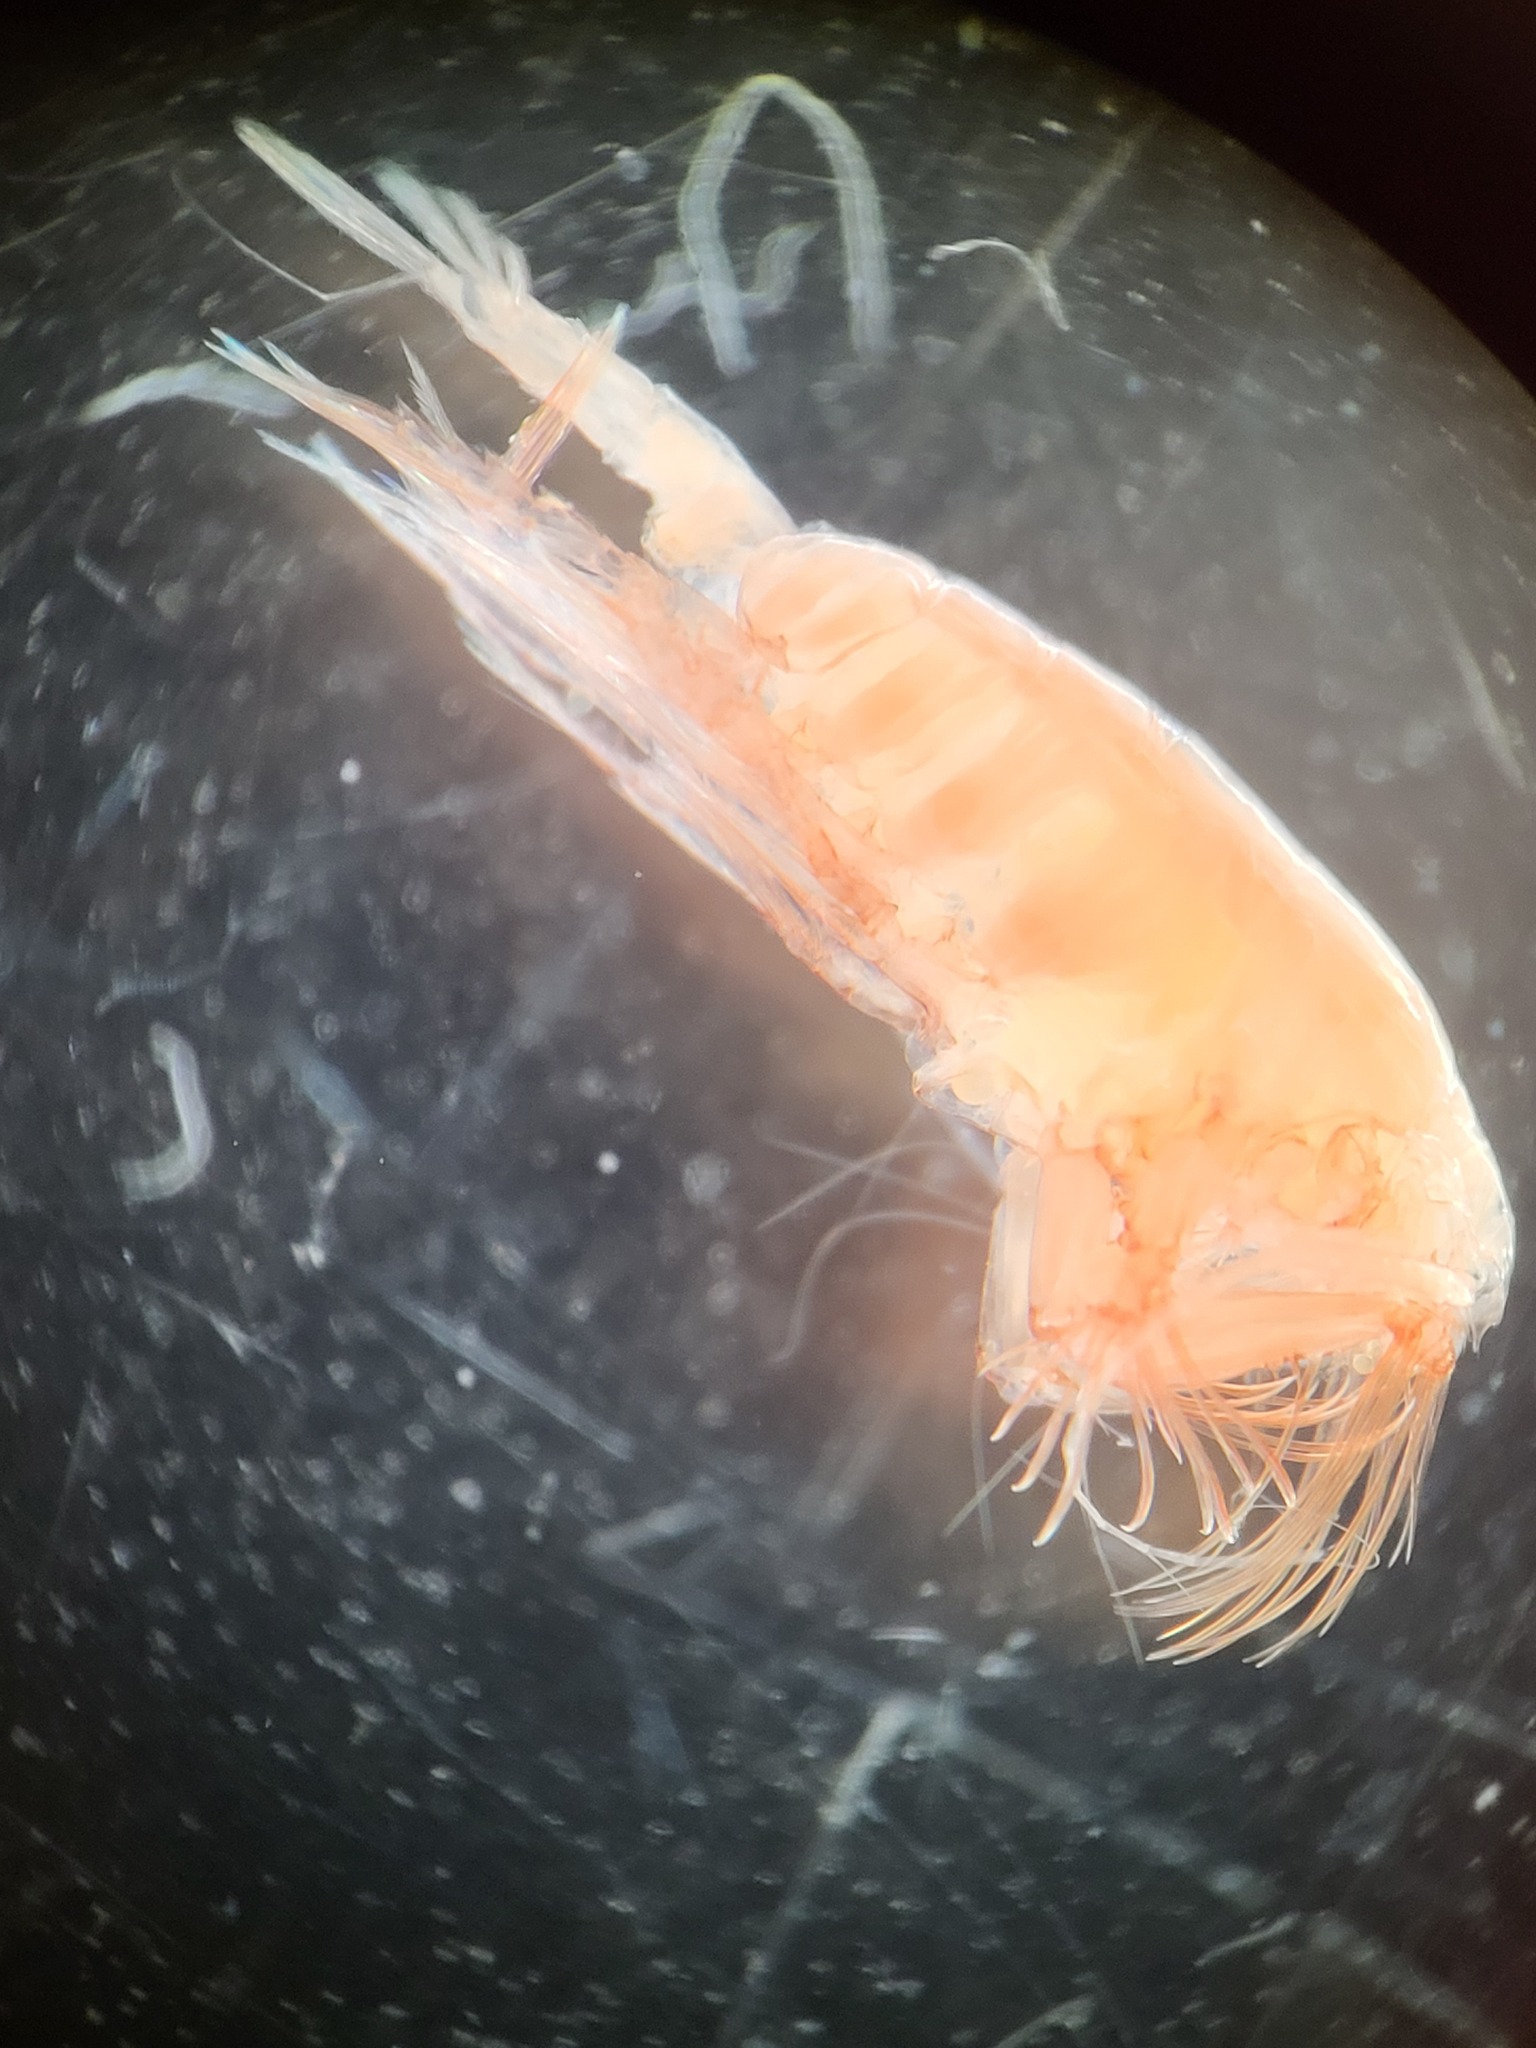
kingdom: Animalia
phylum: Arthropoda
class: Copepoda
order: Calanoida
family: Euchaetidae
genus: Paraeuchaeta
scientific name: Paraeuchaeta norvegica
